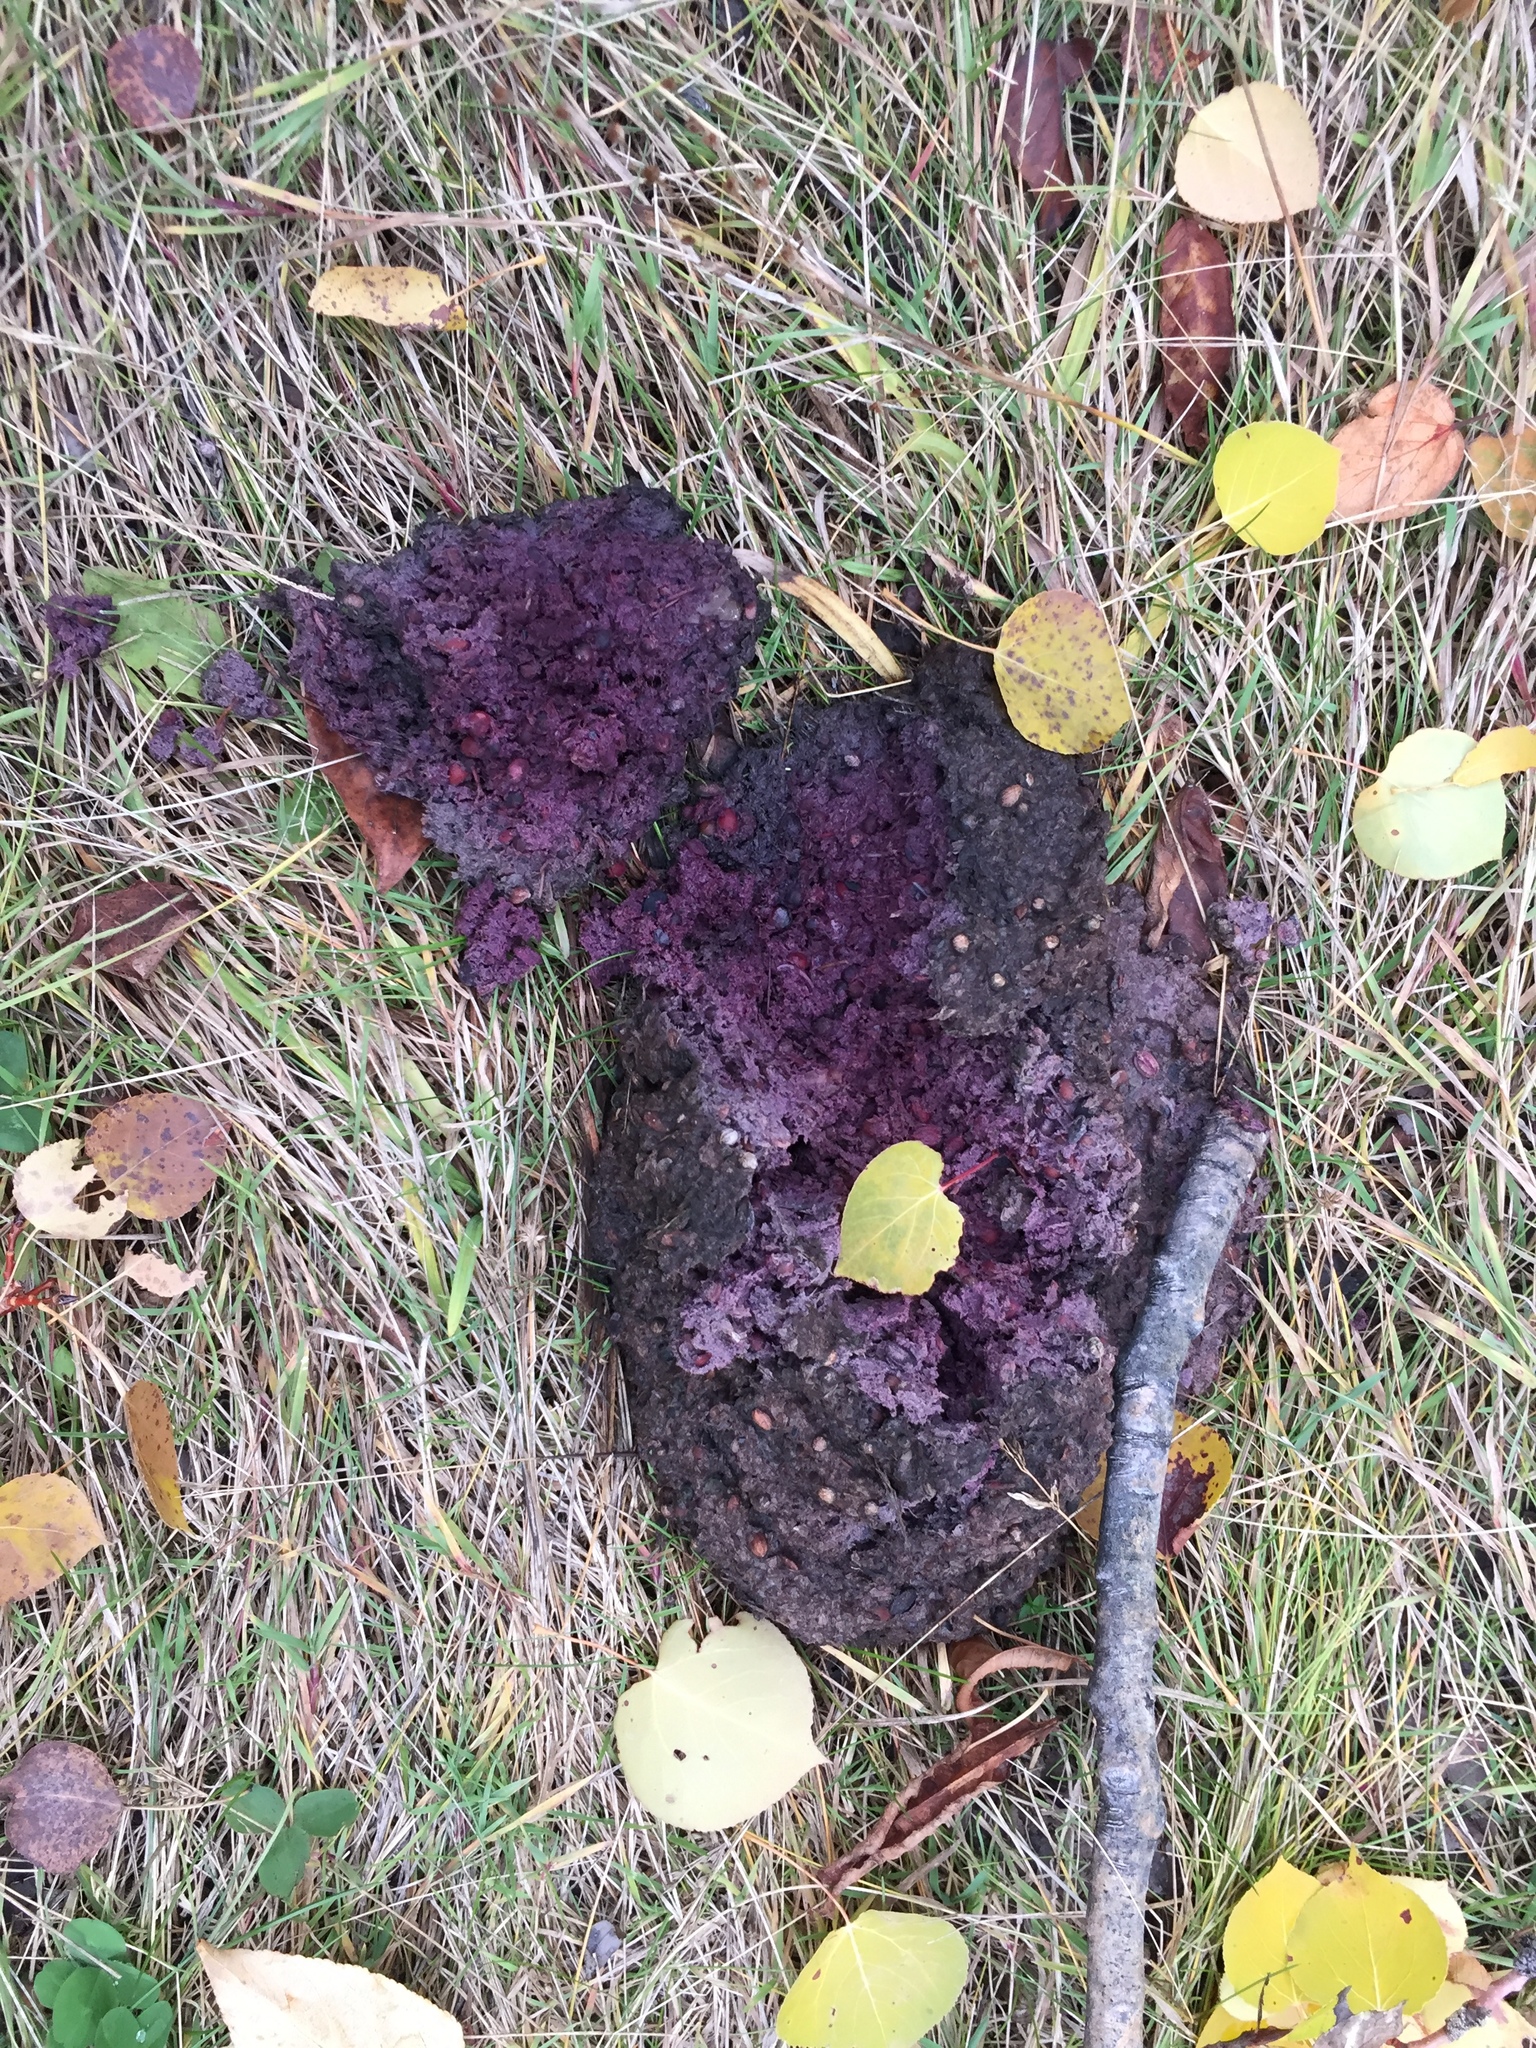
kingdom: Animalia
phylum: Chordata
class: Mammalia
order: Carnivora
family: Ursidae
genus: Ursus
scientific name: Ursus americanus
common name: American black bear
